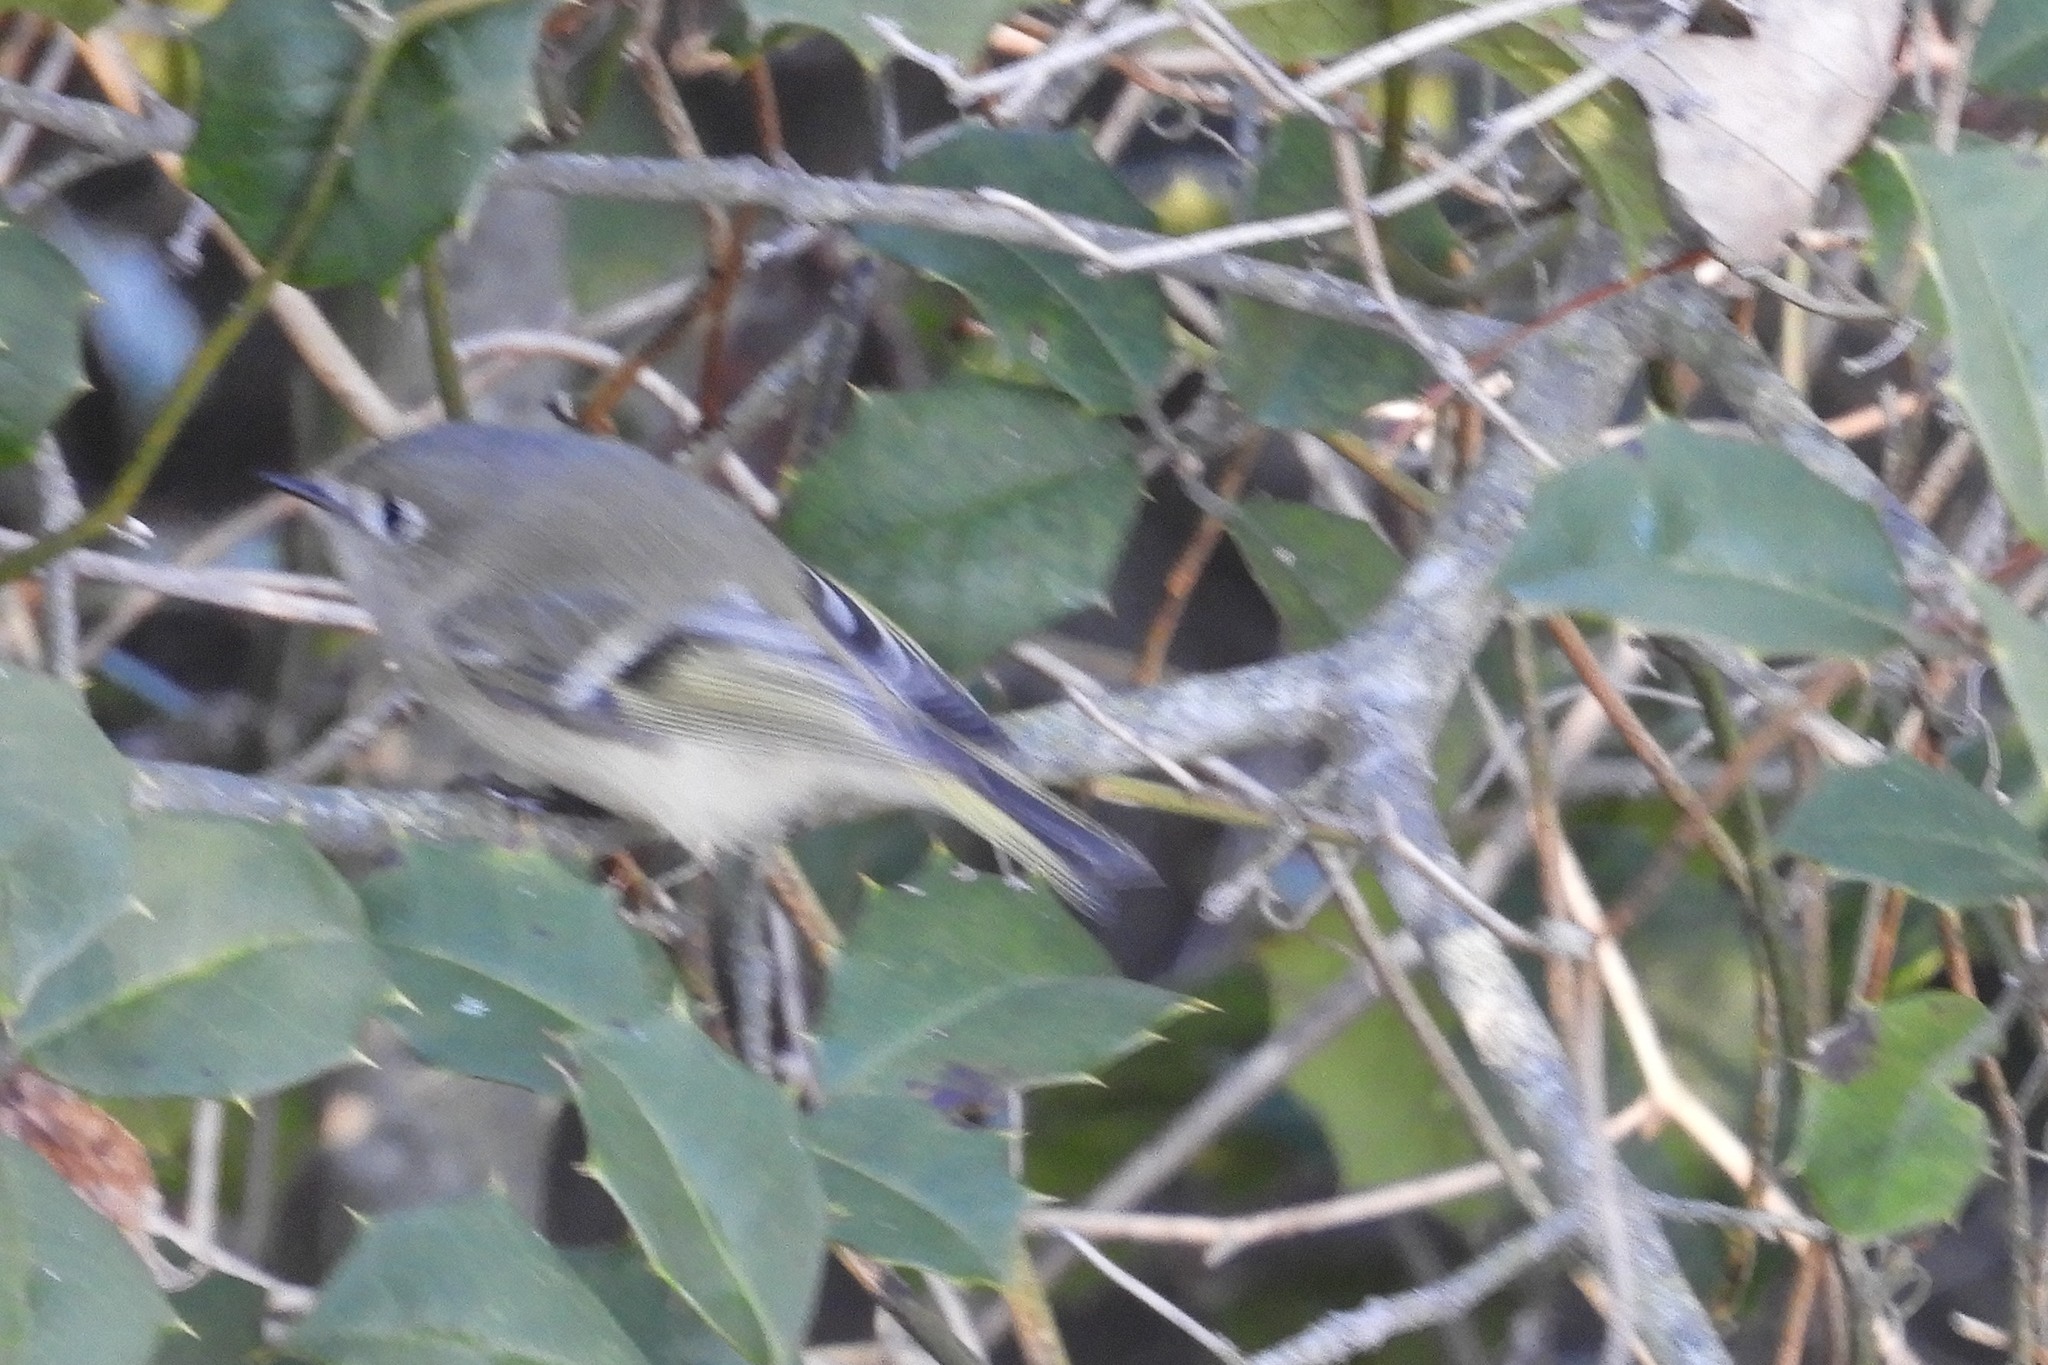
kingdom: Animalia
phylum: Chordata
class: Aves
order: Passeriformes
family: Regulidae
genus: Regulus
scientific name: Regulus calendula
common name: Ruby-crowned kinglet
